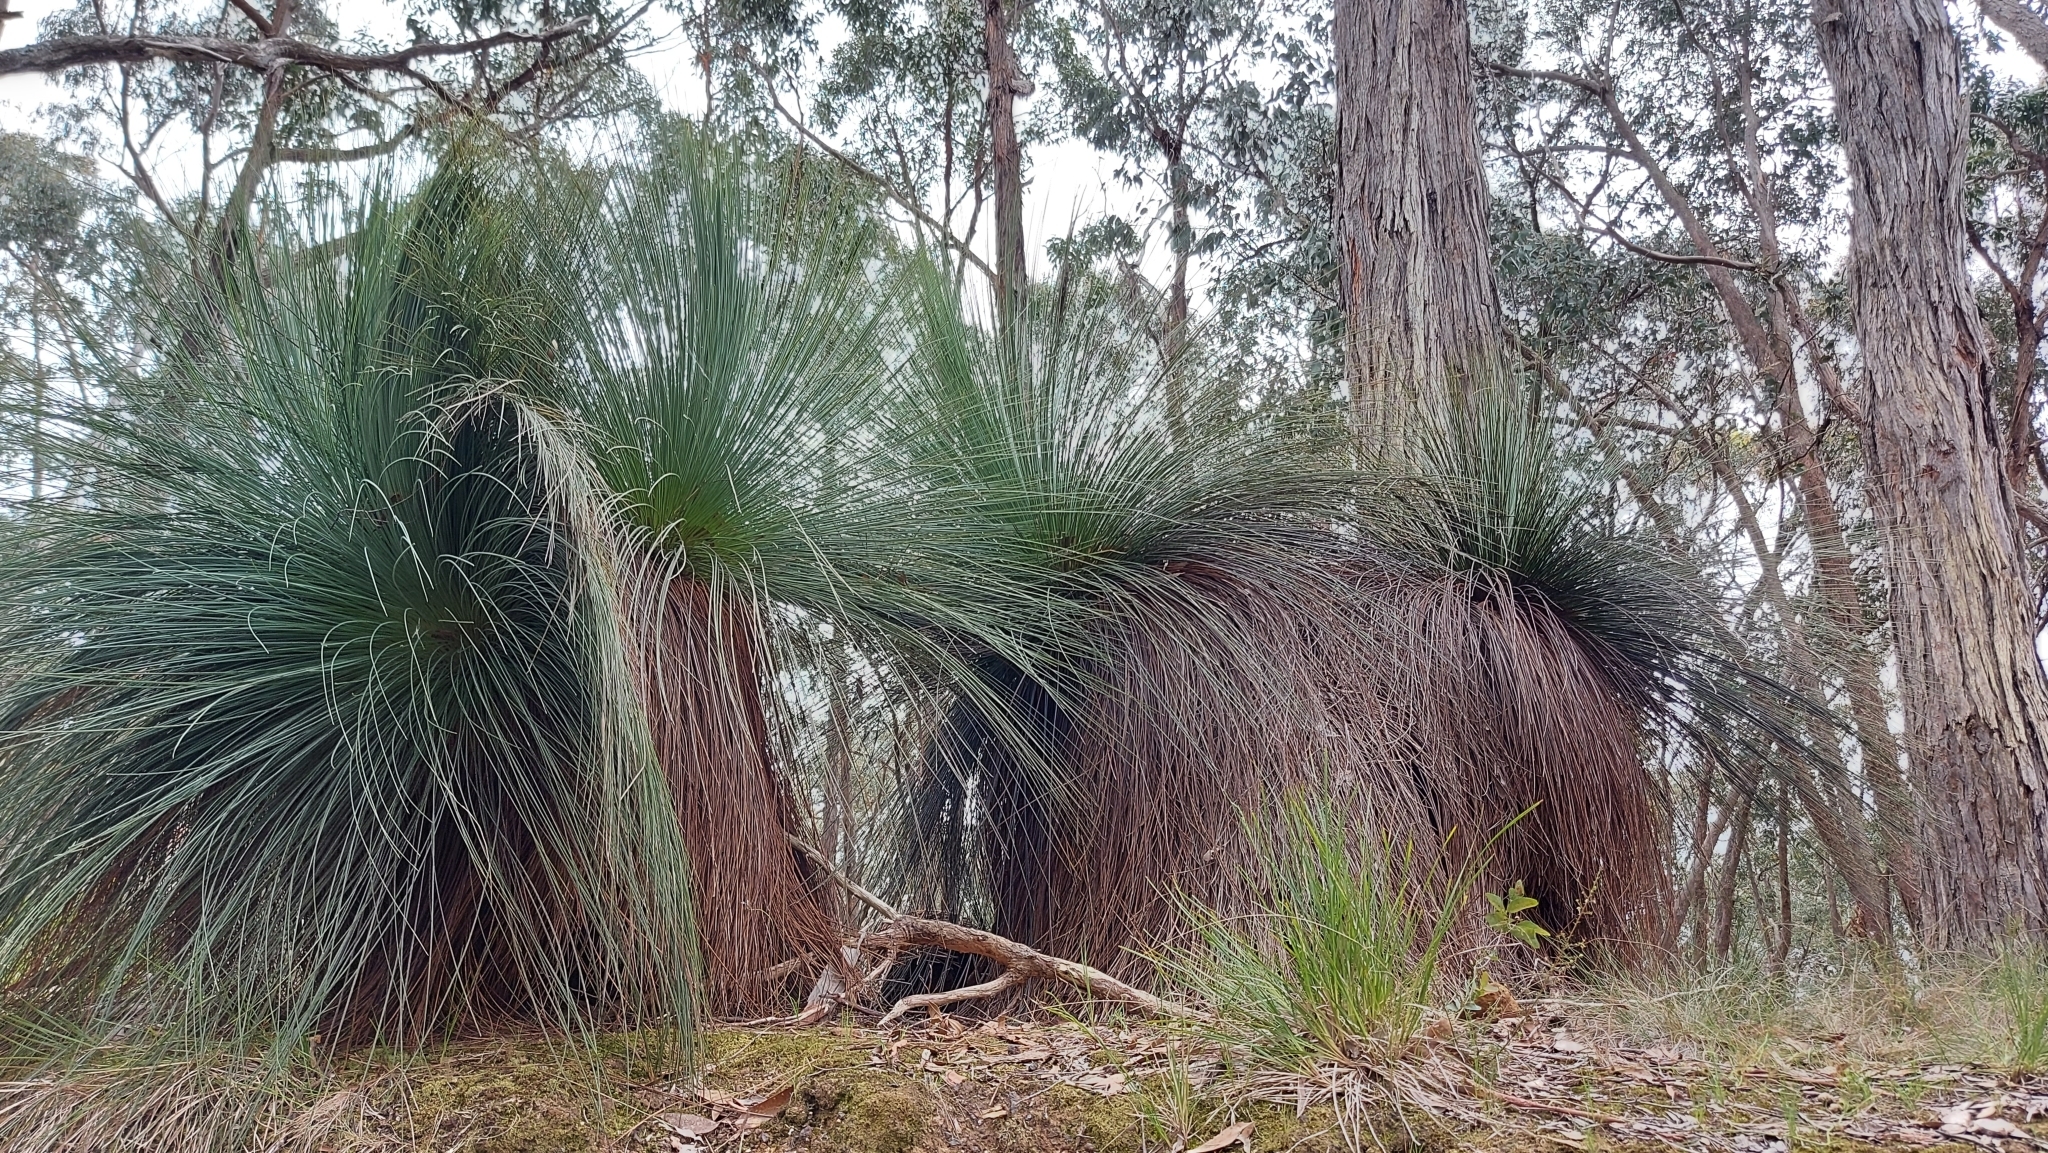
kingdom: Plantae
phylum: Tracheophyta
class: Liliopsida
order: Asparagales
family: Asphodelaceae
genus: Xanthorrhoea
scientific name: Xanthorrhoea australis
